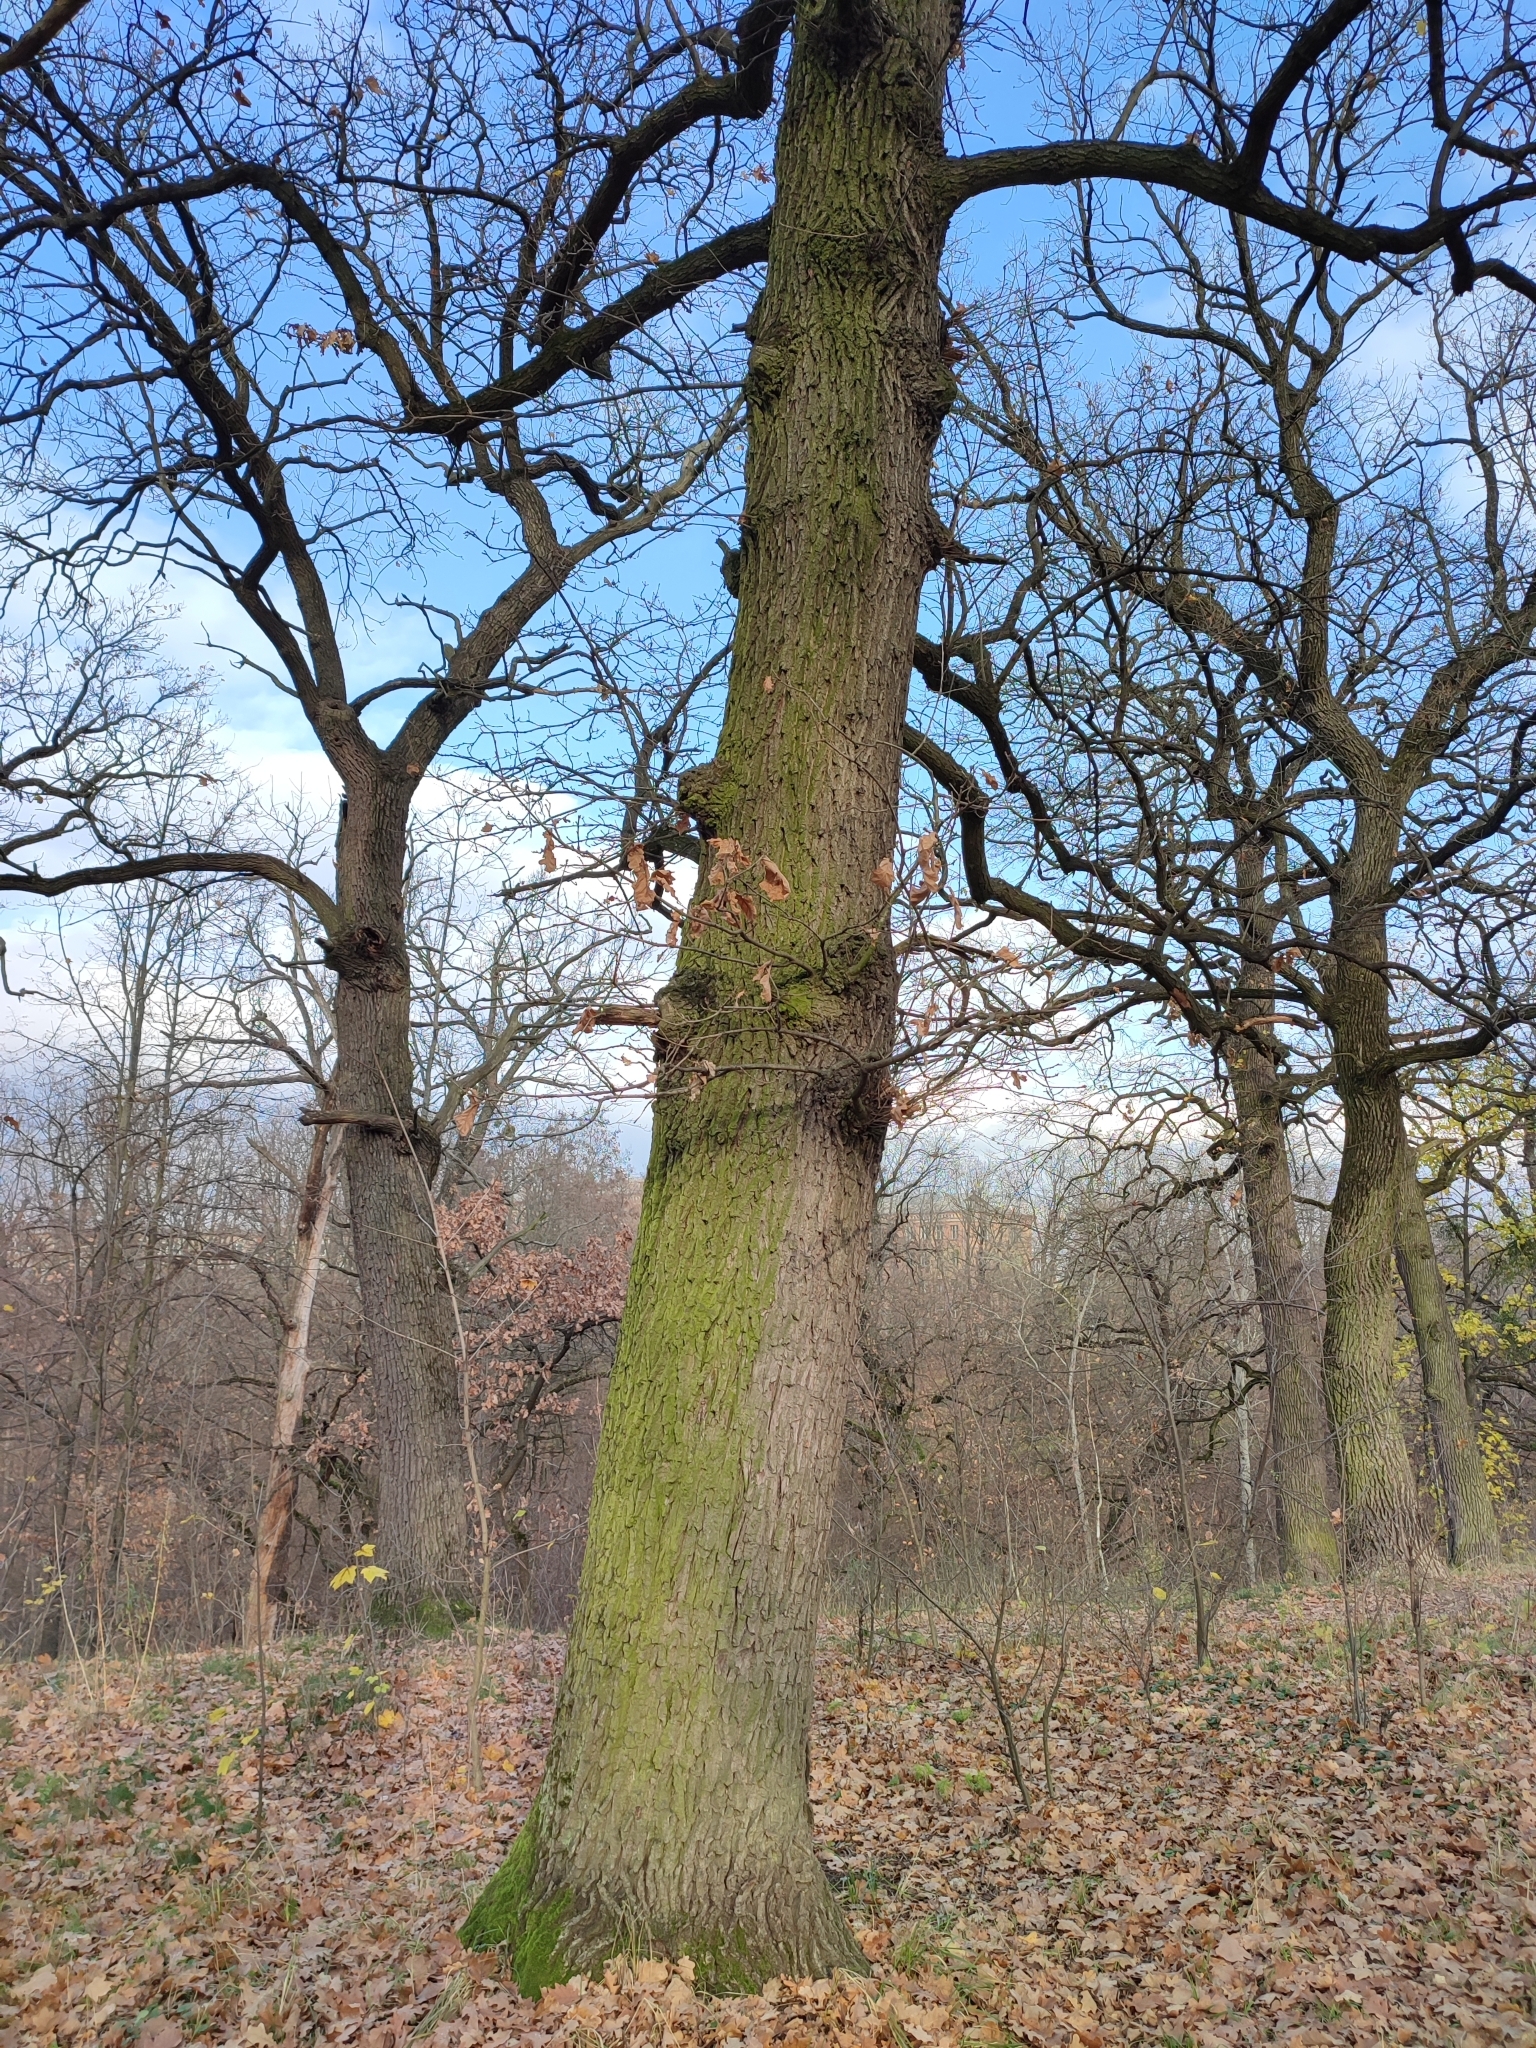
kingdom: Plantae
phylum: Tracheophyta
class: Magnoliopsida
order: Fagales
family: Fagaceae
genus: Quercus
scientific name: Quercus robur
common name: Pedunculate oak
